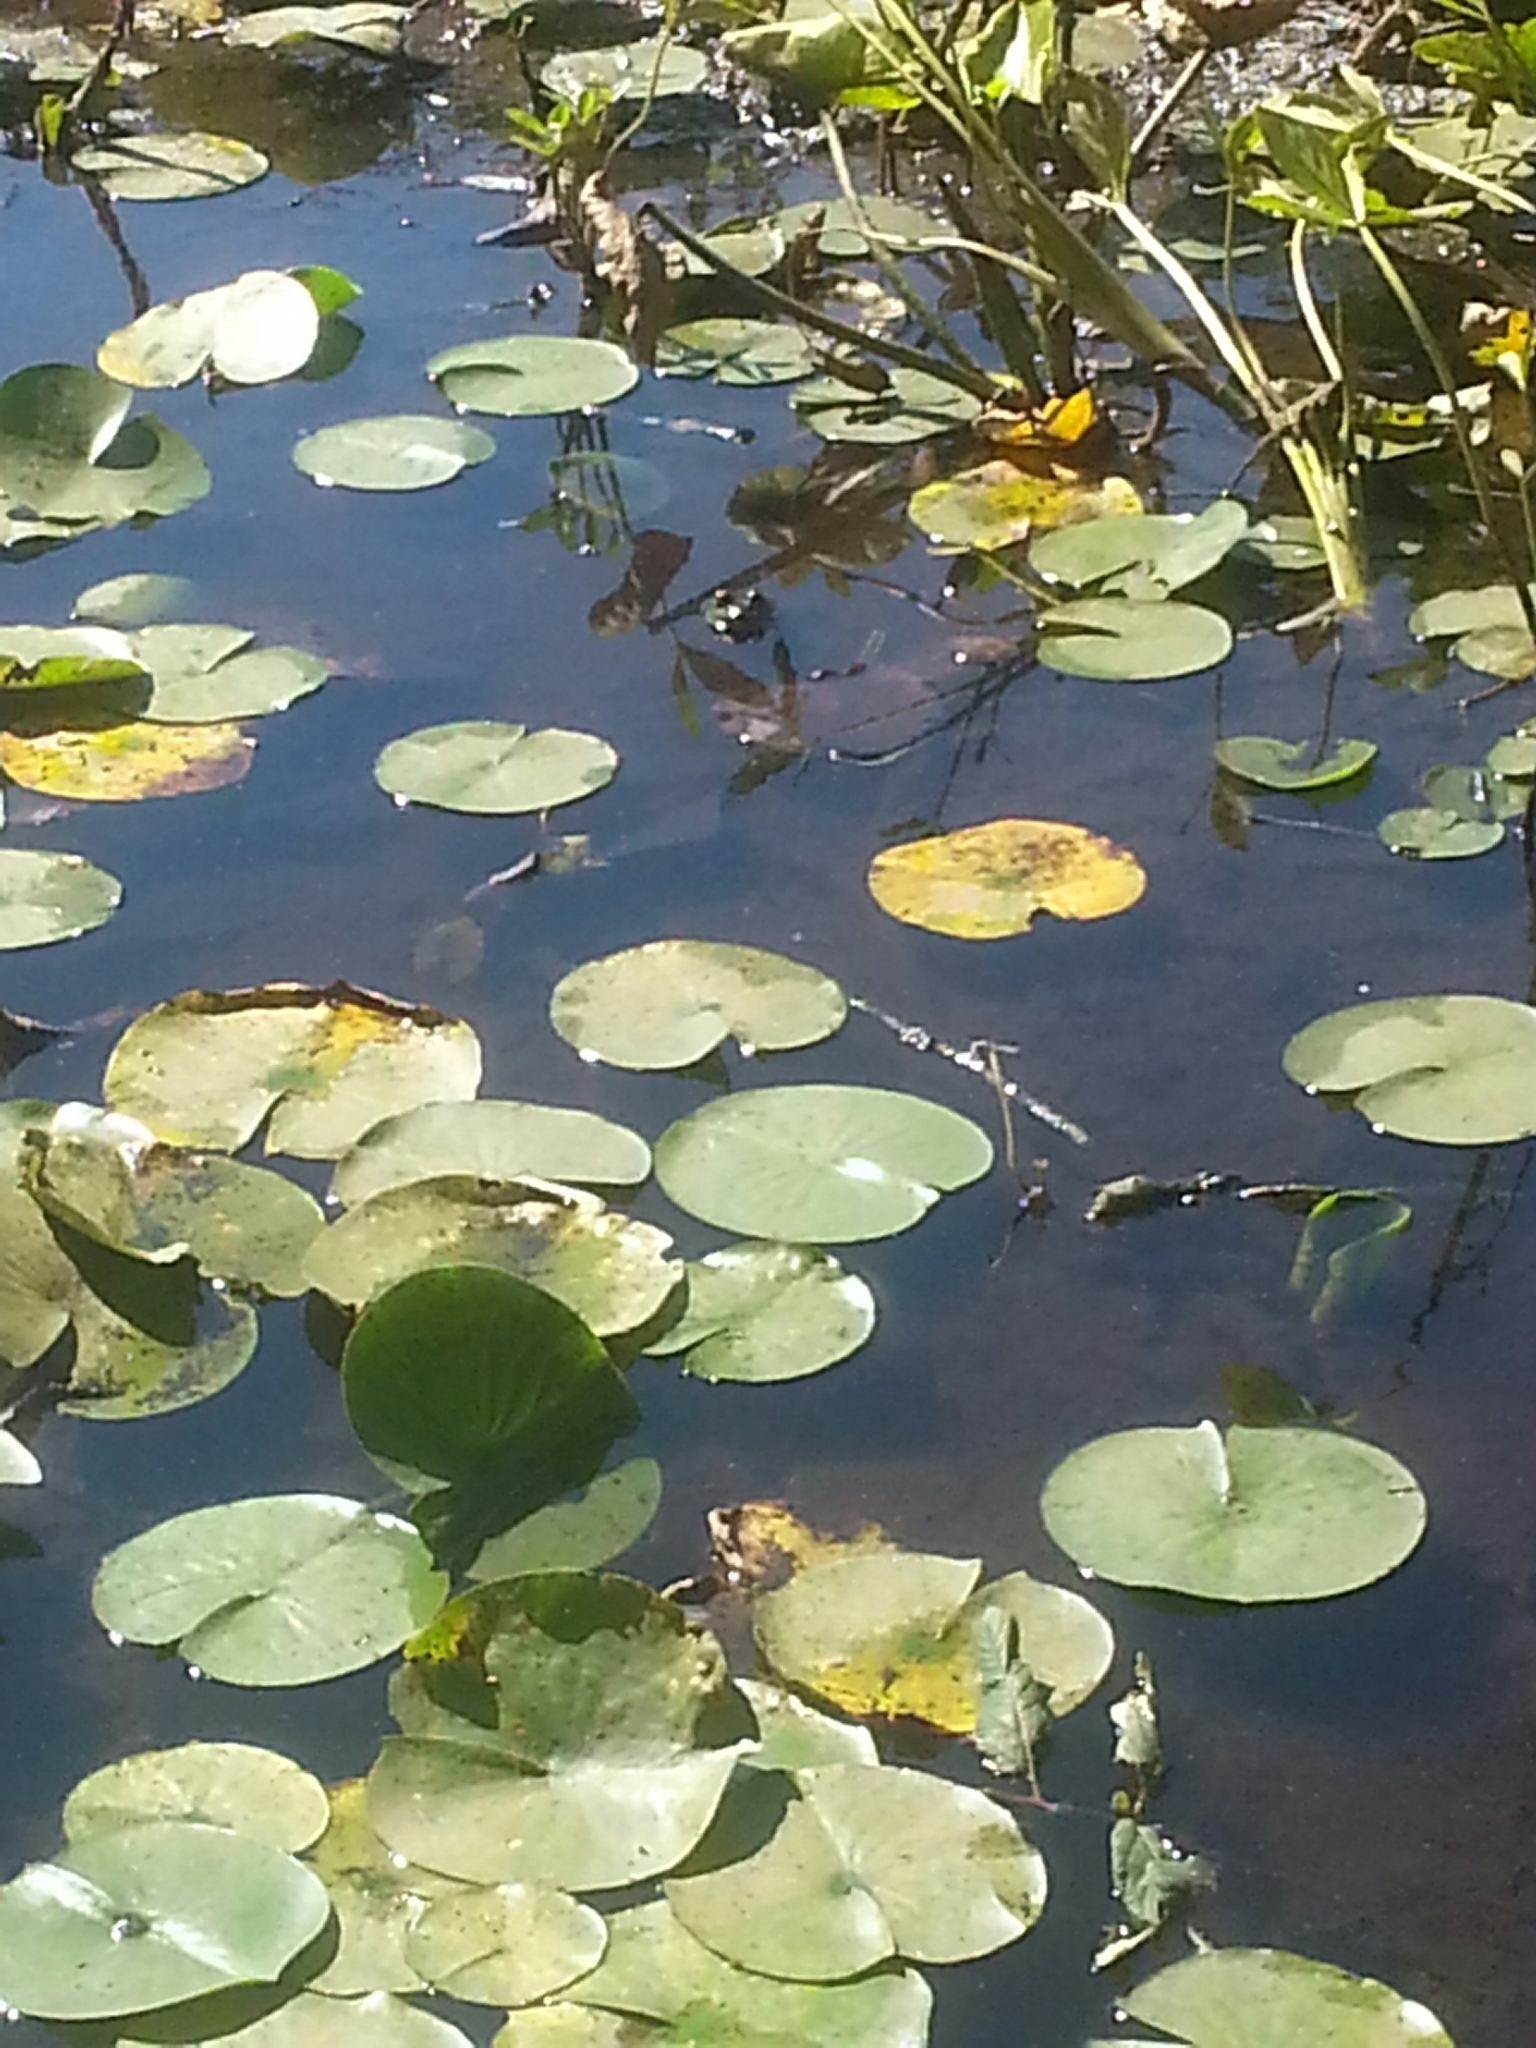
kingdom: Animalia
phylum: Chordata
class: Amphibia
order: Anura
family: Ranidae
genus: Lithobates
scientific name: Lithobates
